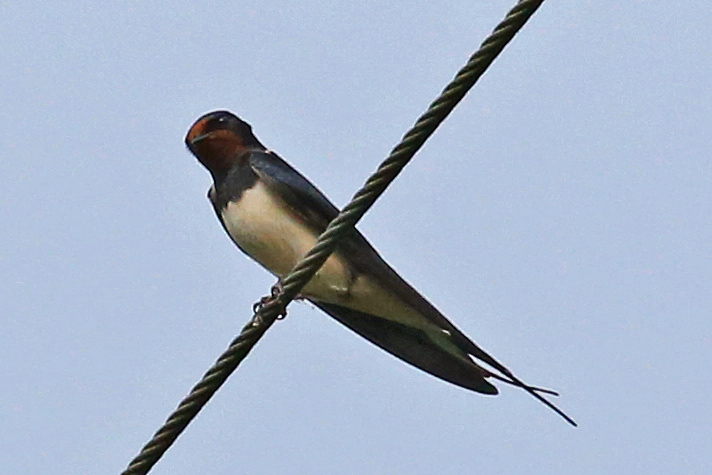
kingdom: Animalia
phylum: Chordata
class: Aves
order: Passeriformes
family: Hirundinidae
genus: Hirundo
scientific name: Hirundo rustica
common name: Barn swallow
